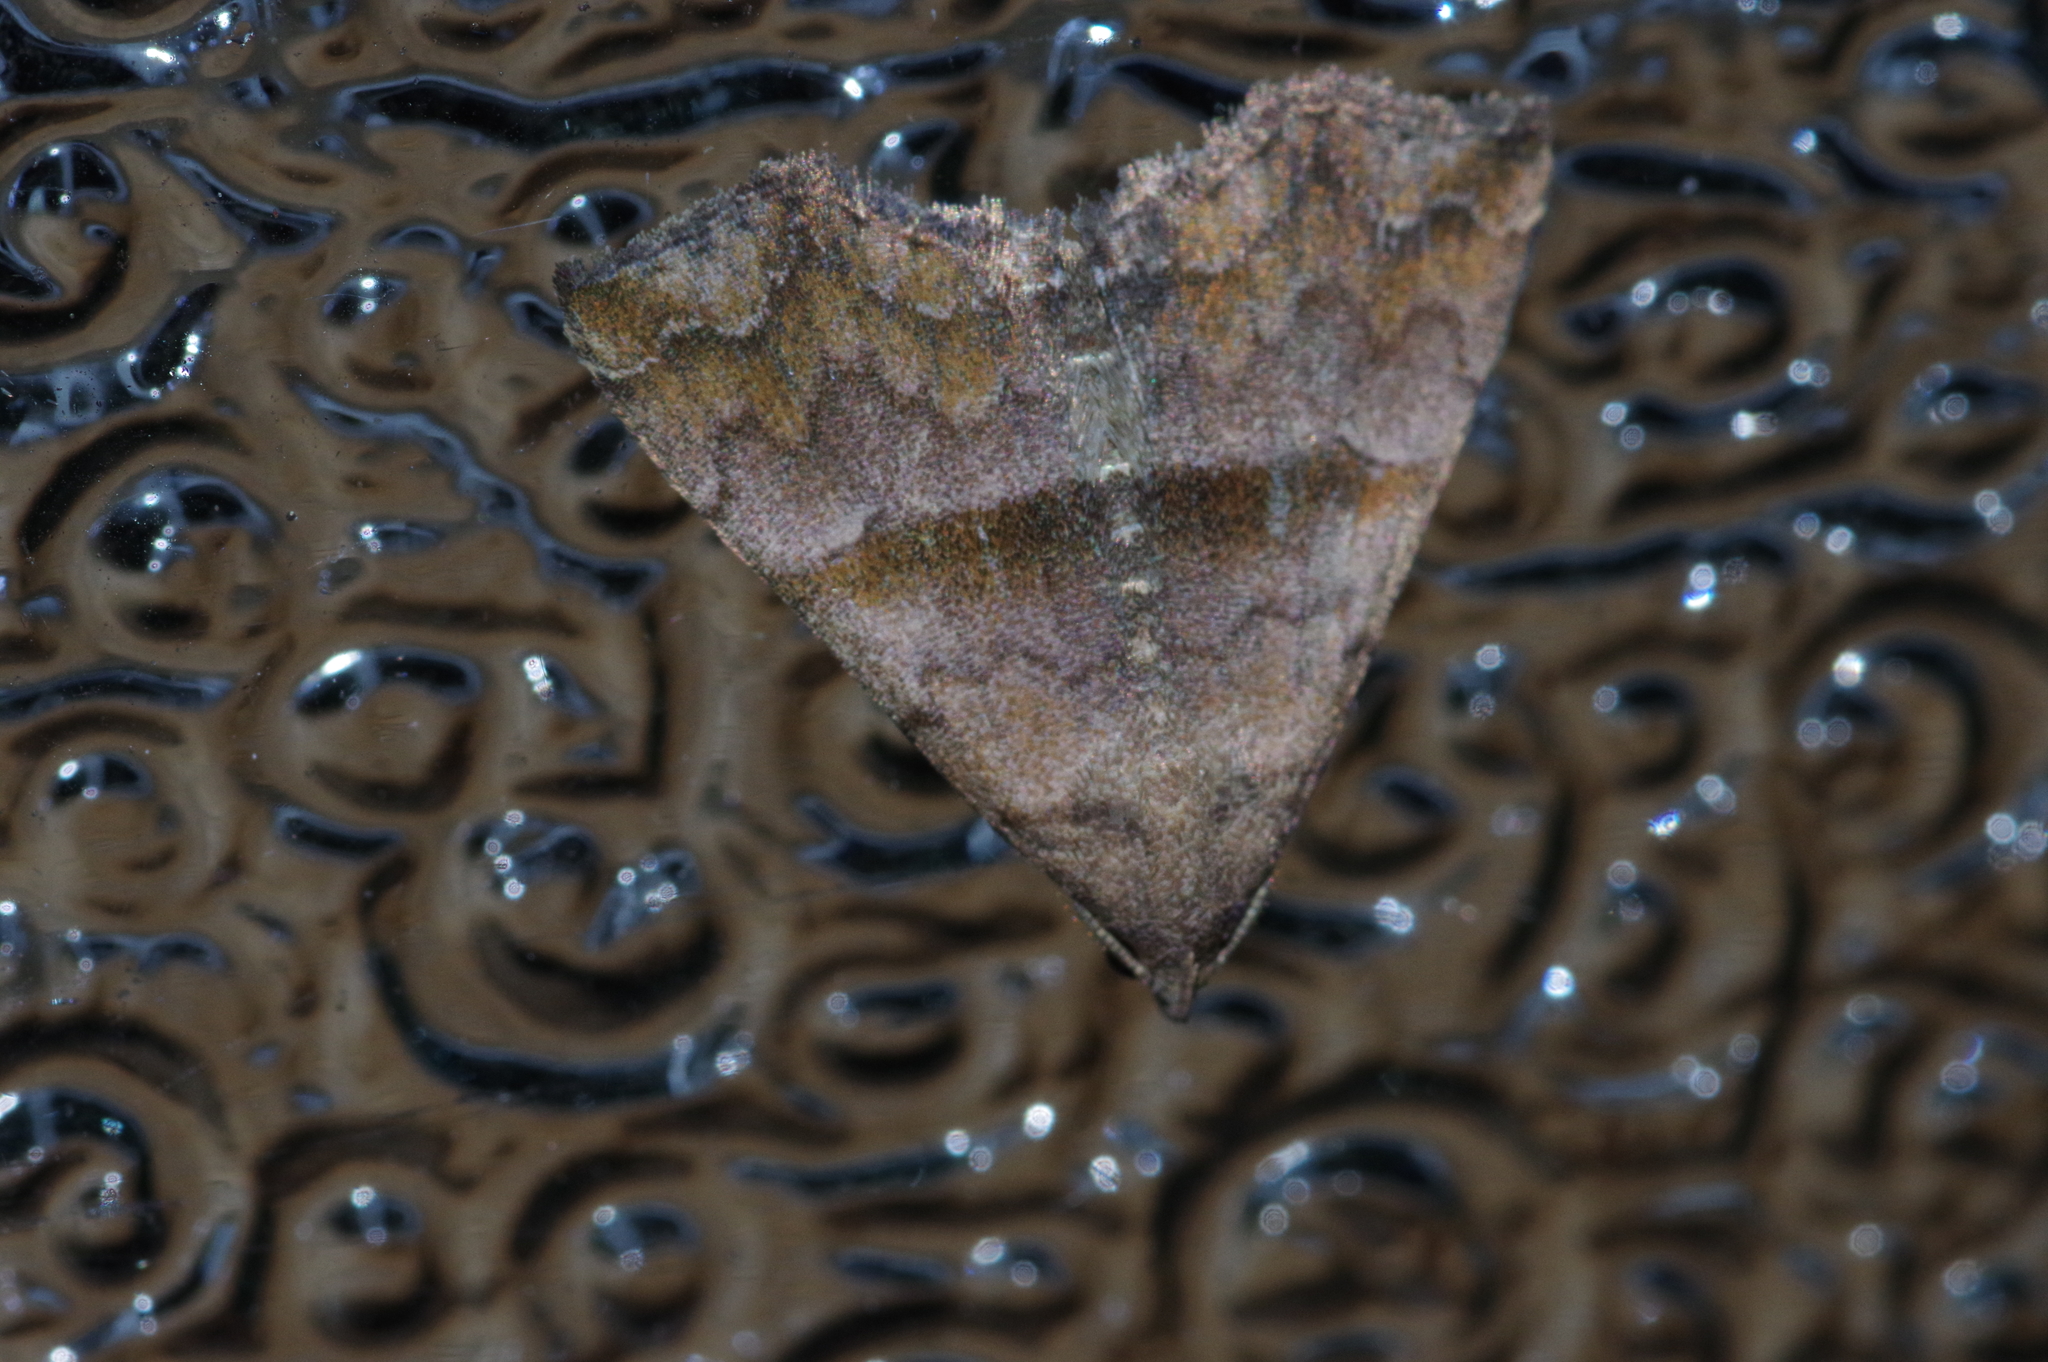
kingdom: Animalia
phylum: Arthropoda
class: Insecta
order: Lepidoptera
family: Erebidae
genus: Polypogon
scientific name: Polypogon Hipoepa fractalis
